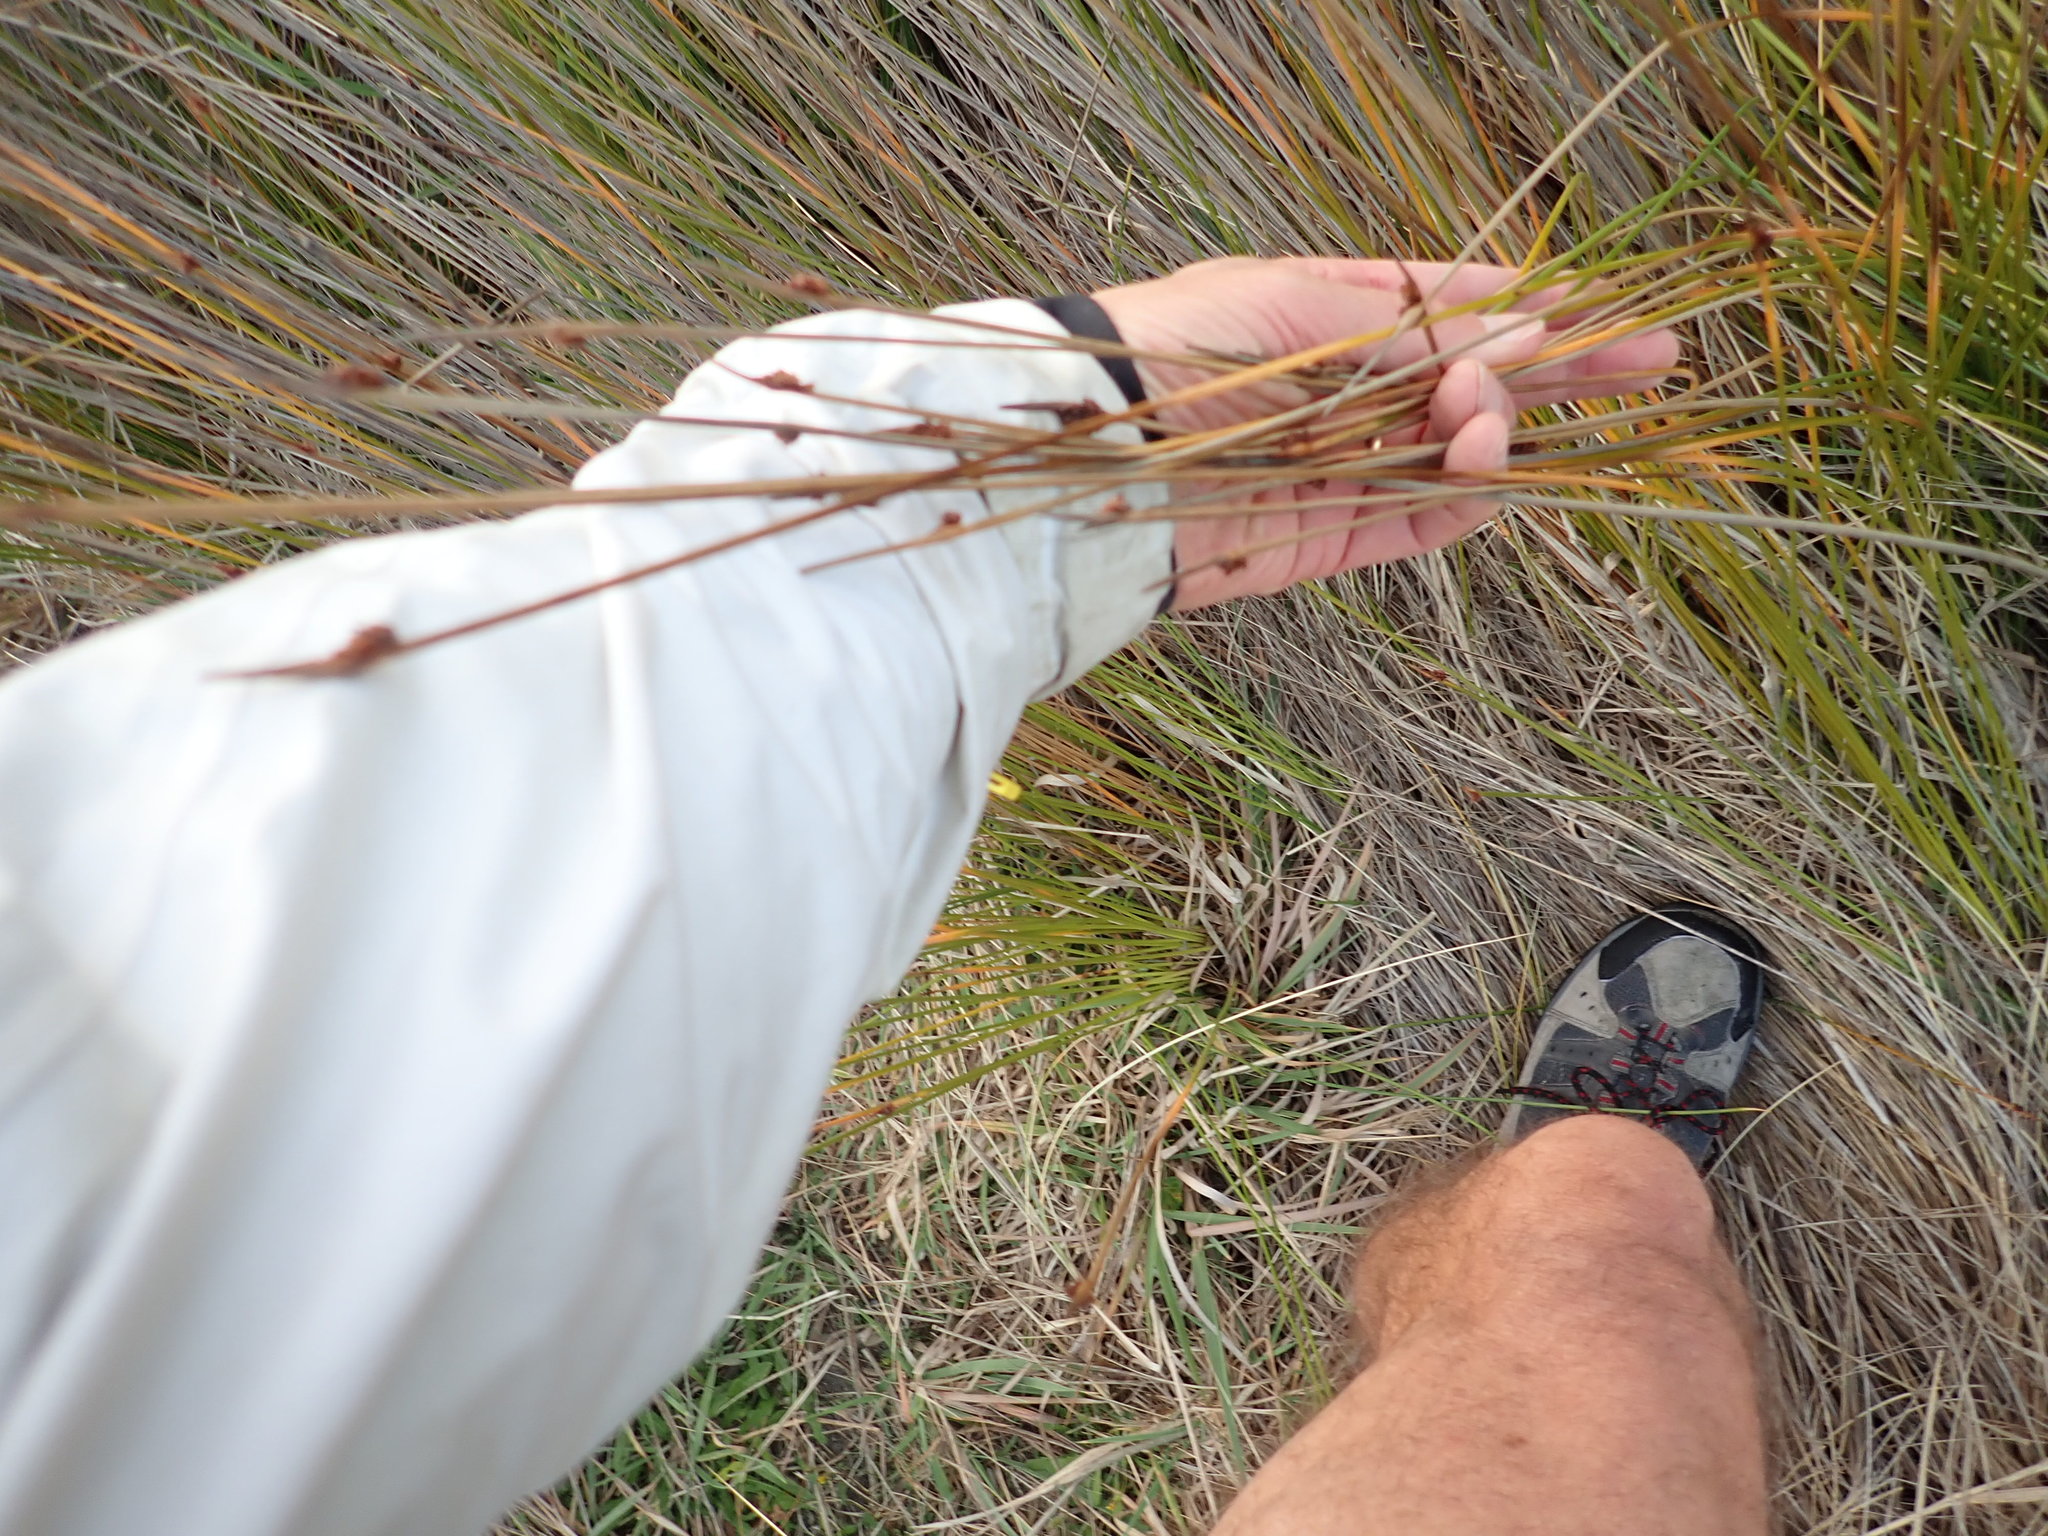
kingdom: Plantae
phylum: Tracheophyta
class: Liliopsida
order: Poales
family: Cyperaceae
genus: Ficinia
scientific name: Ficinia nodosa
